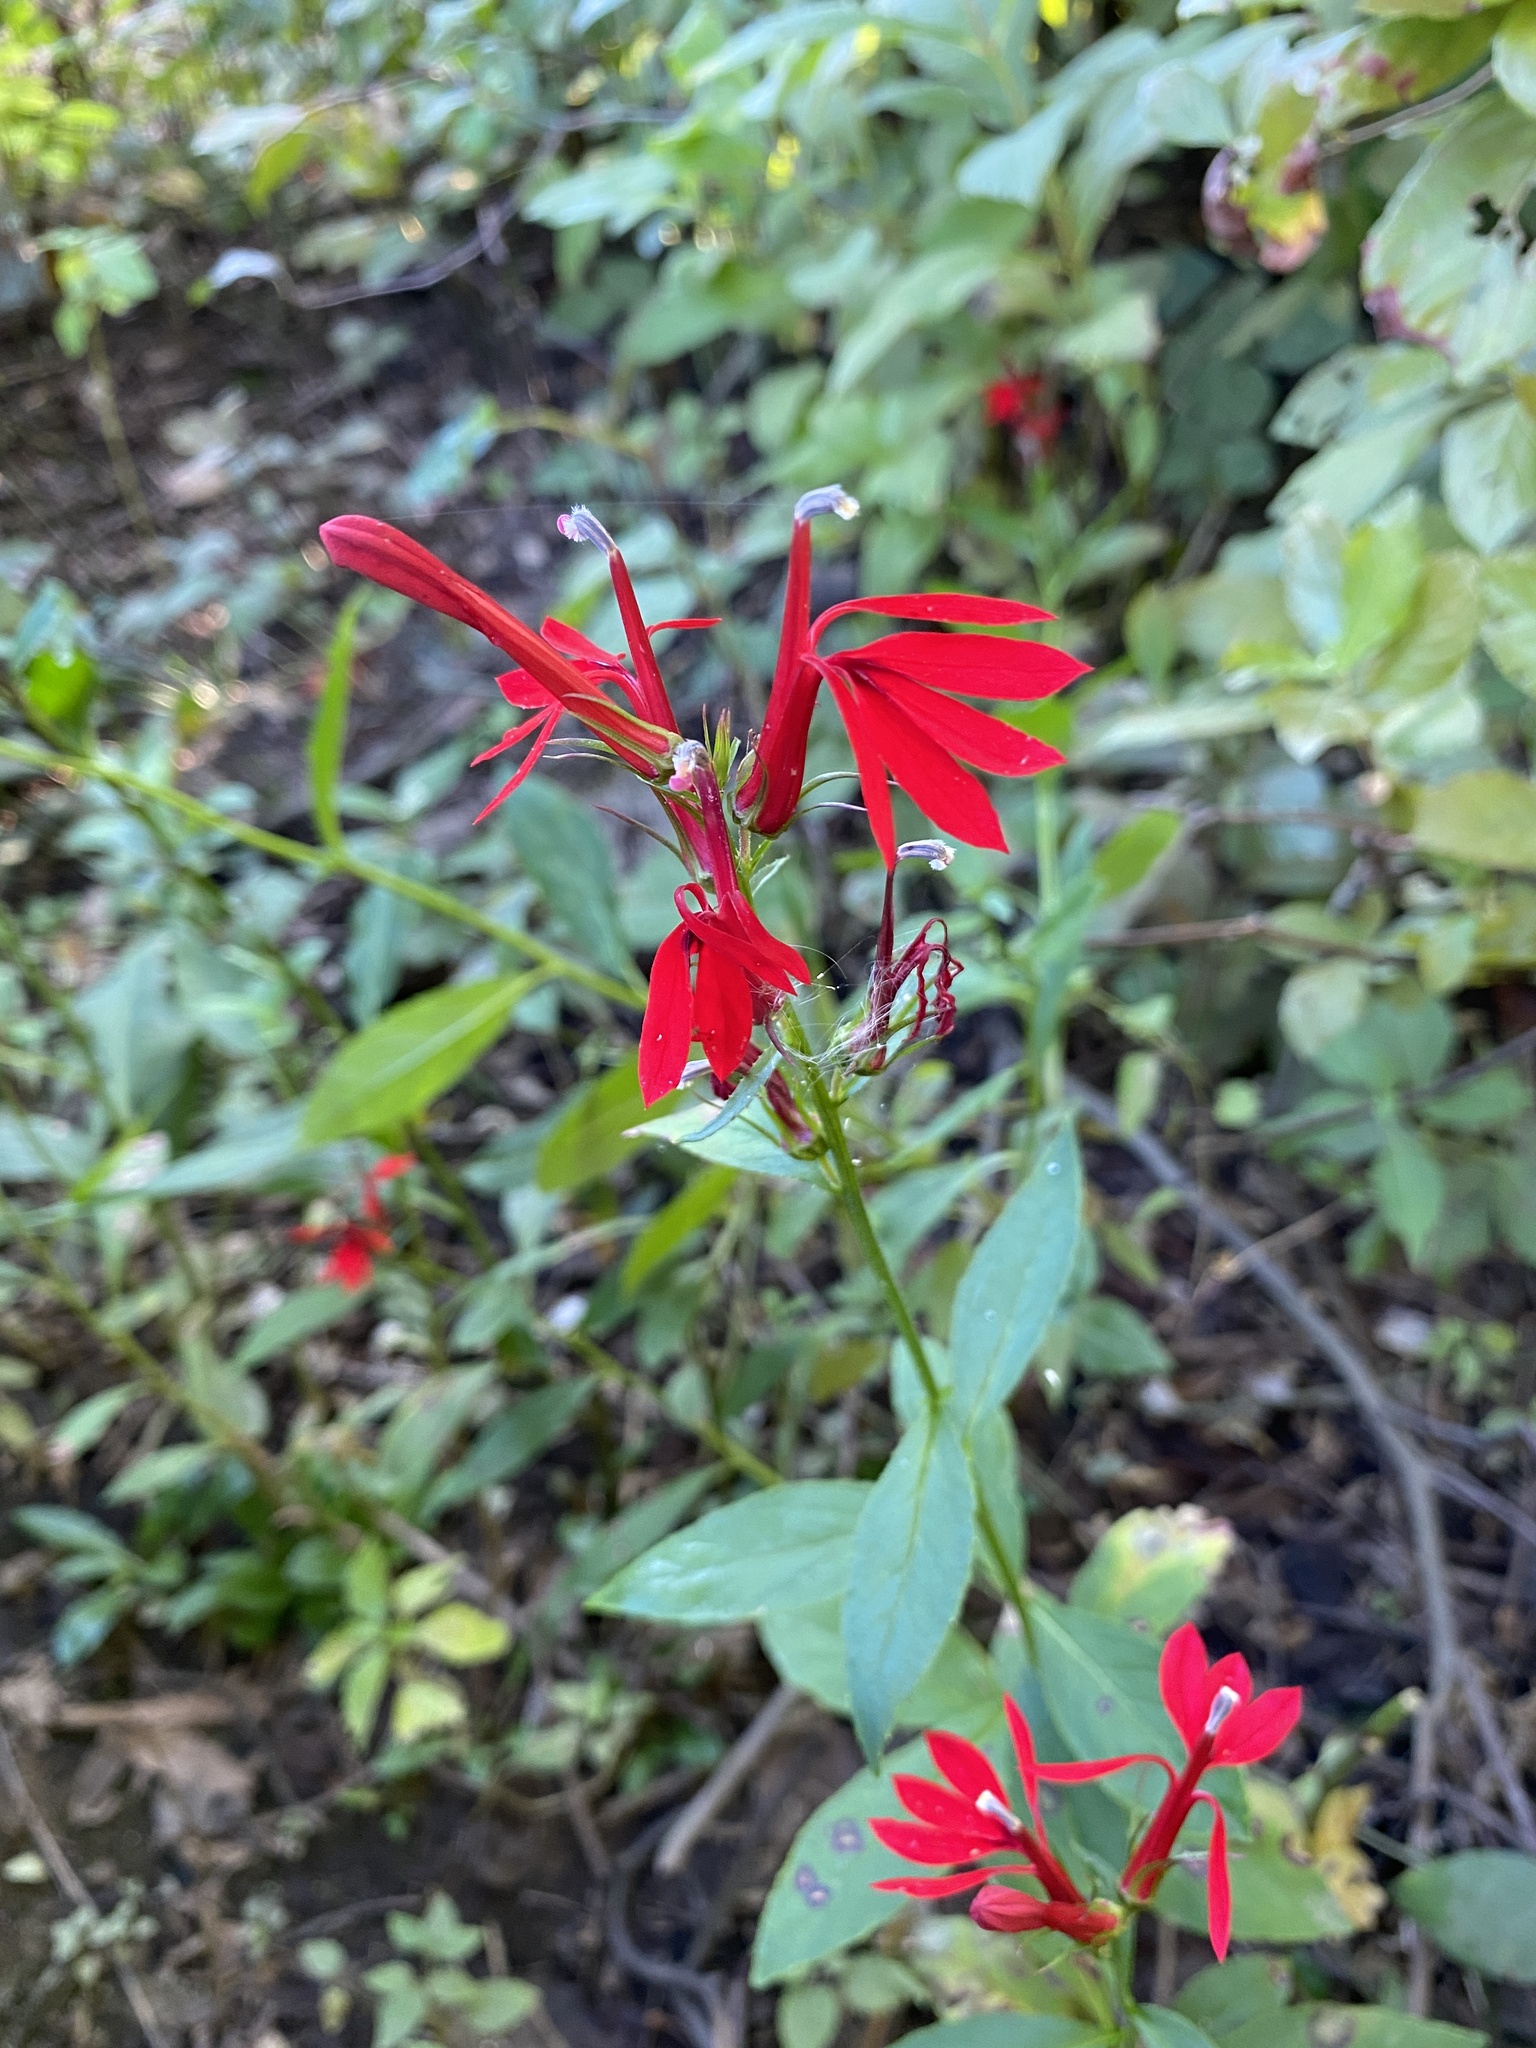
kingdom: Plantae
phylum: Tracheophyta
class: Magnoliopsida
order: Asterales
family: Campanulaceae
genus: Lobelia
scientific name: Lobelia cardinalis
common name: Cardinal flower
